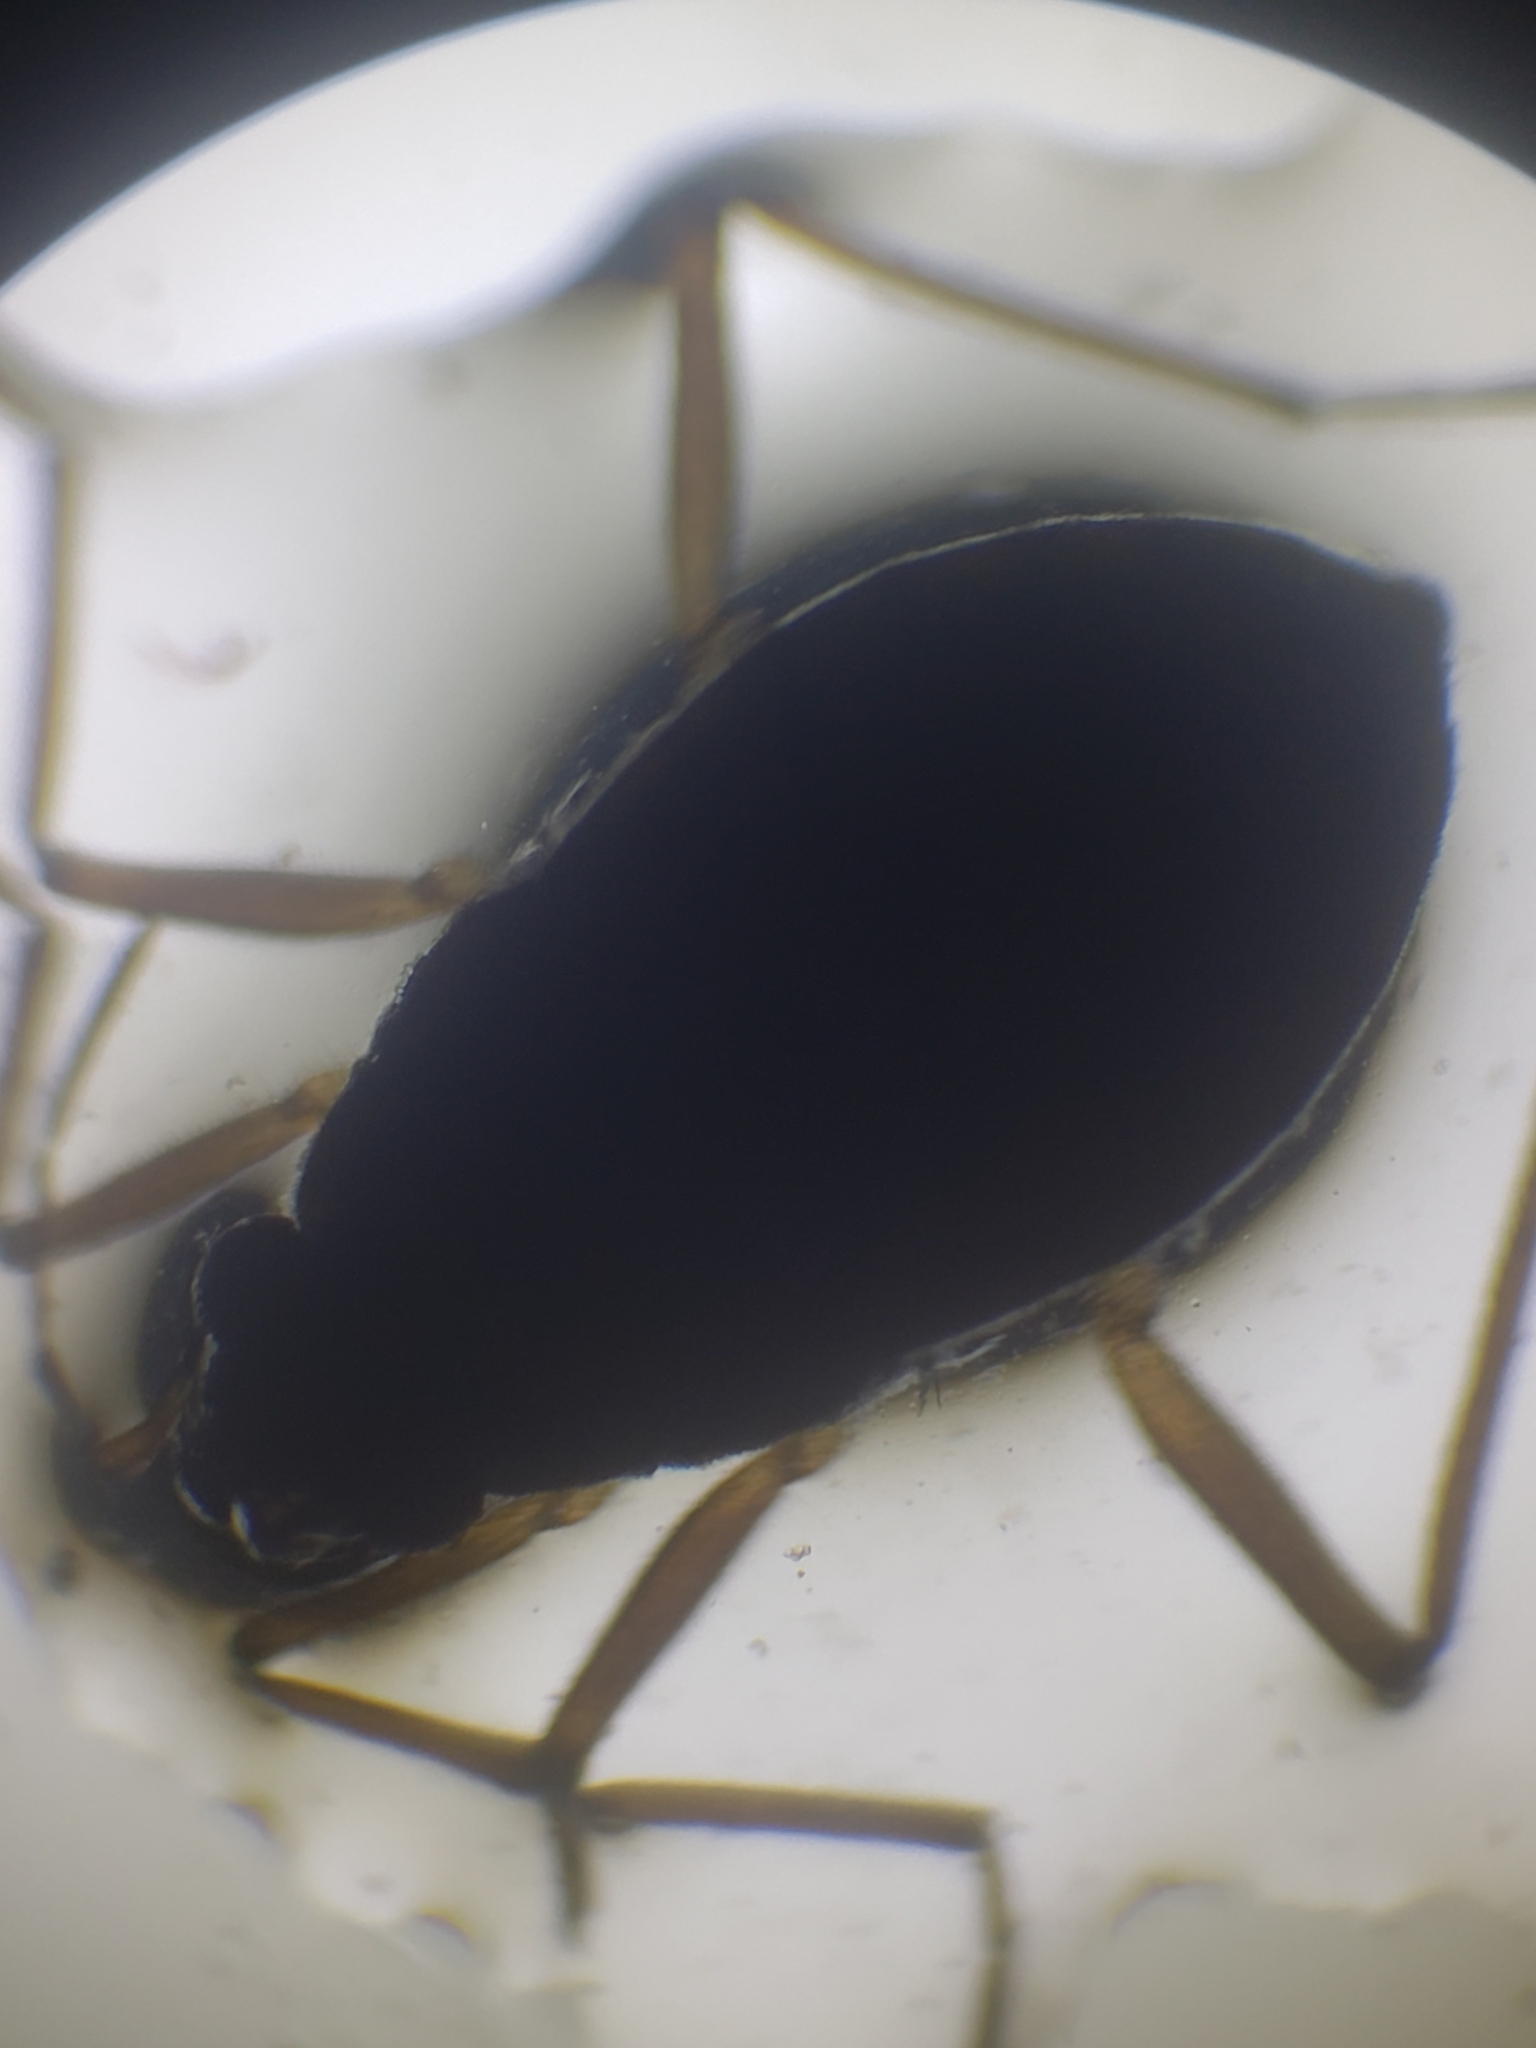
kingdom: Animalia
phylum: Arthropoda
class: Insecta
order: Hemiptera
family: Veliidae
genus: Microvelia
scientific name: Microvelia
